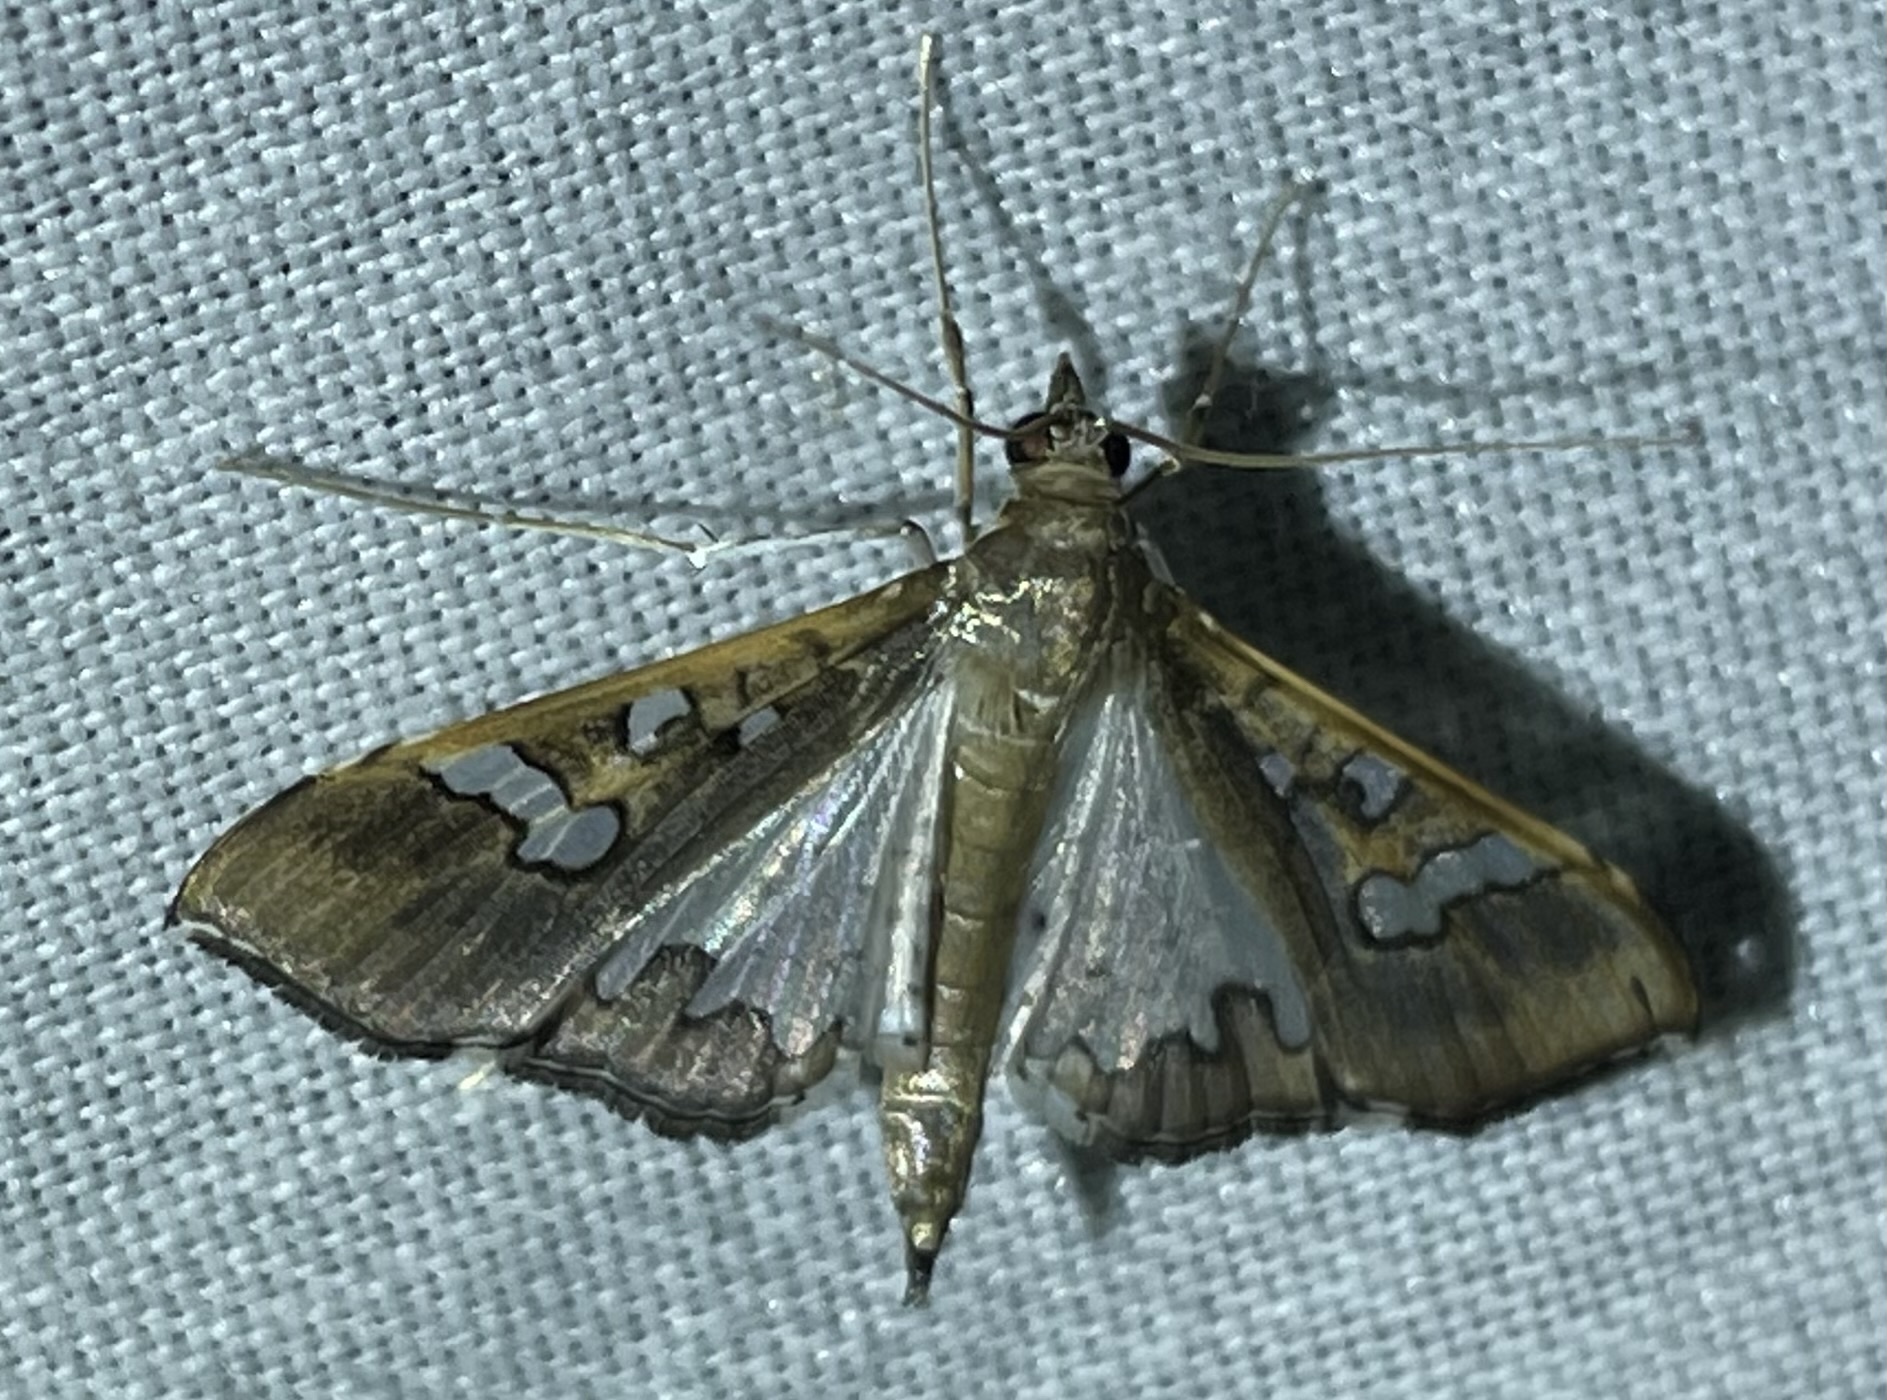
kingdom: Animalia
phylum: Arthropoda
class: Insecta
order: Lepidoptera
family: Crambidae
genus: Maruca
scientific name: Maruca vitrata
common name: Maruca pod borer
